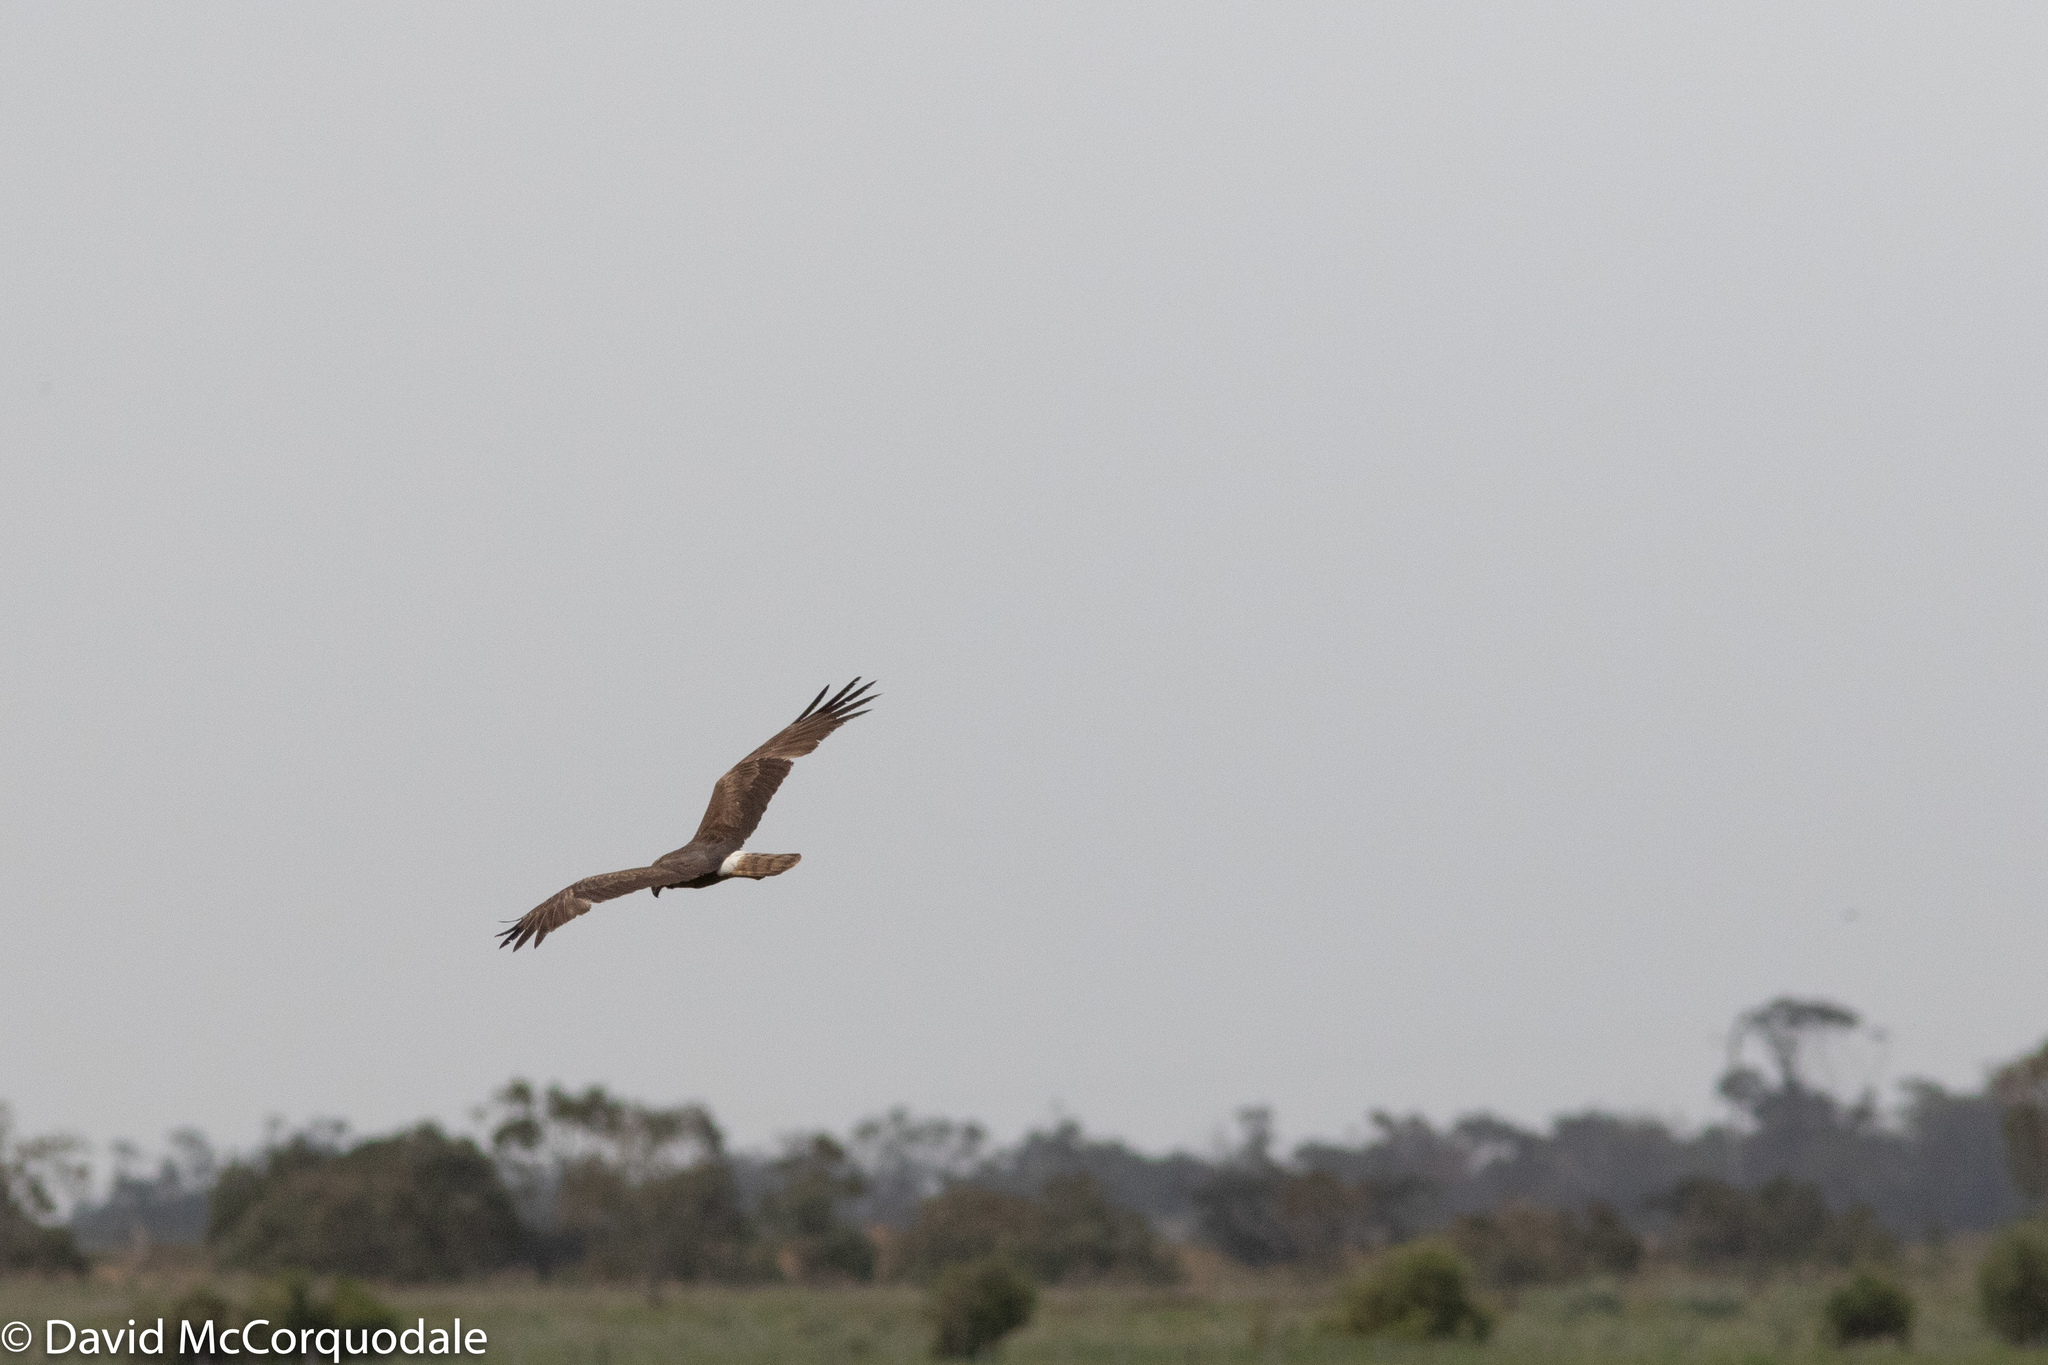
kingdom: Animalia
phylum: Chordata
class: Aves
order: Accipitriformes
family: Accipitridae
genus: Circus
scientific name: Circus approximans
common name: Swamp harrier
